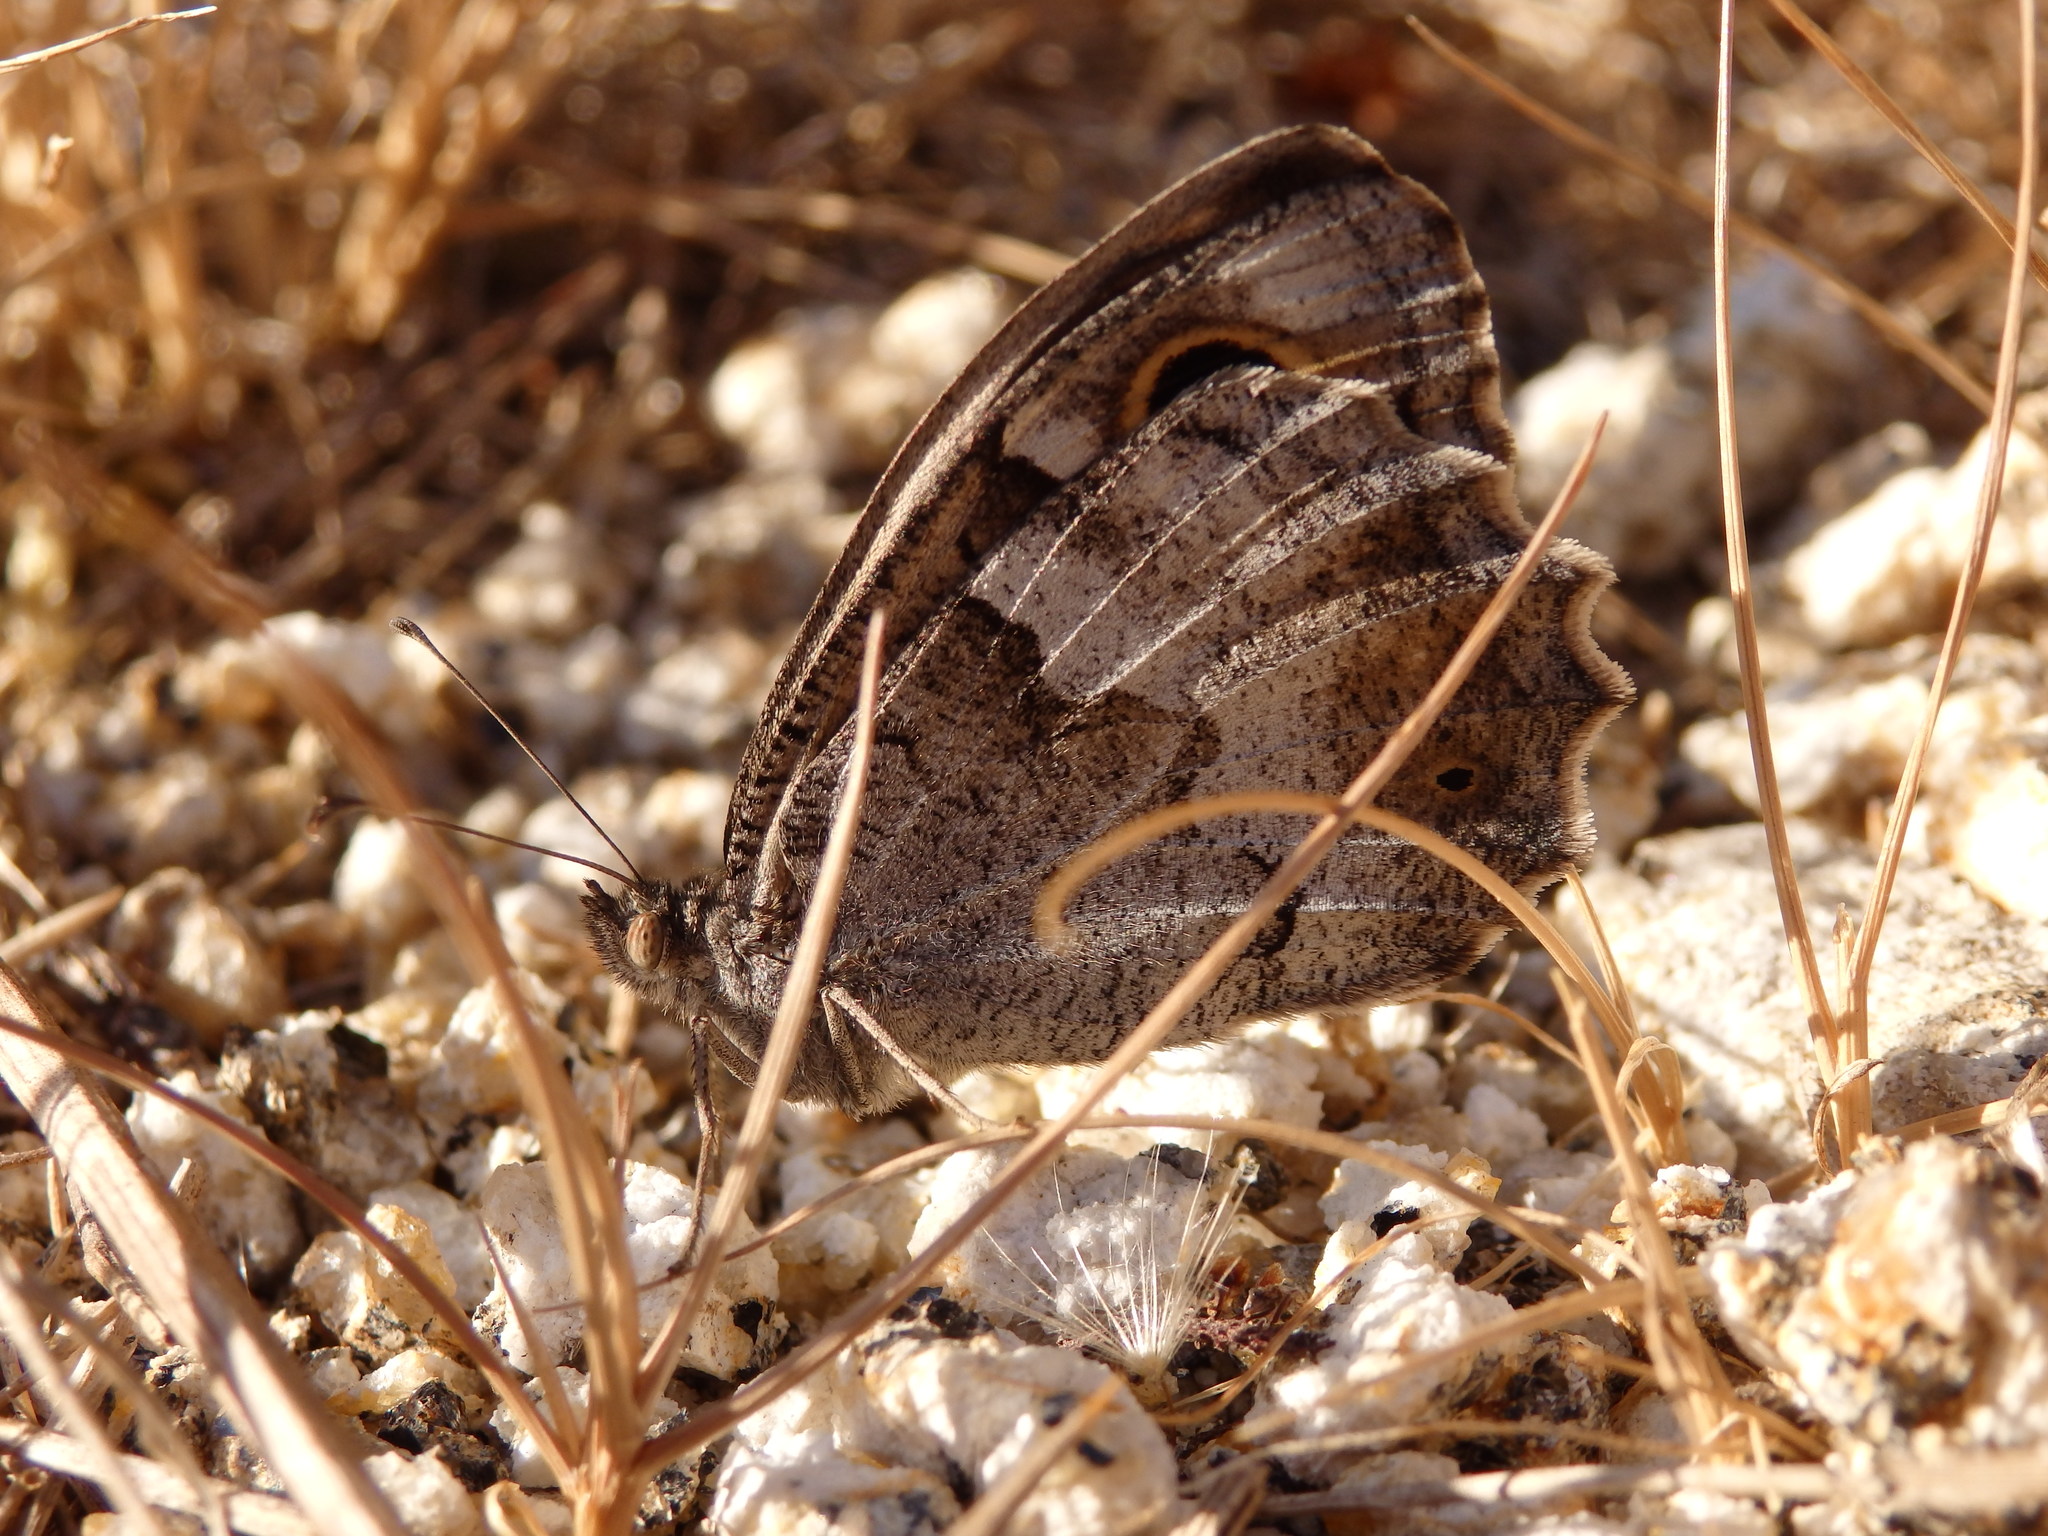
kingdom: Animalia
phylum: Arthropoda
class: Insecta
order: Lepidoptera
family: Nymphalidae
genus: Hipparchia
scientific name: Hipparchia statilinus
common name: Tree grayling
